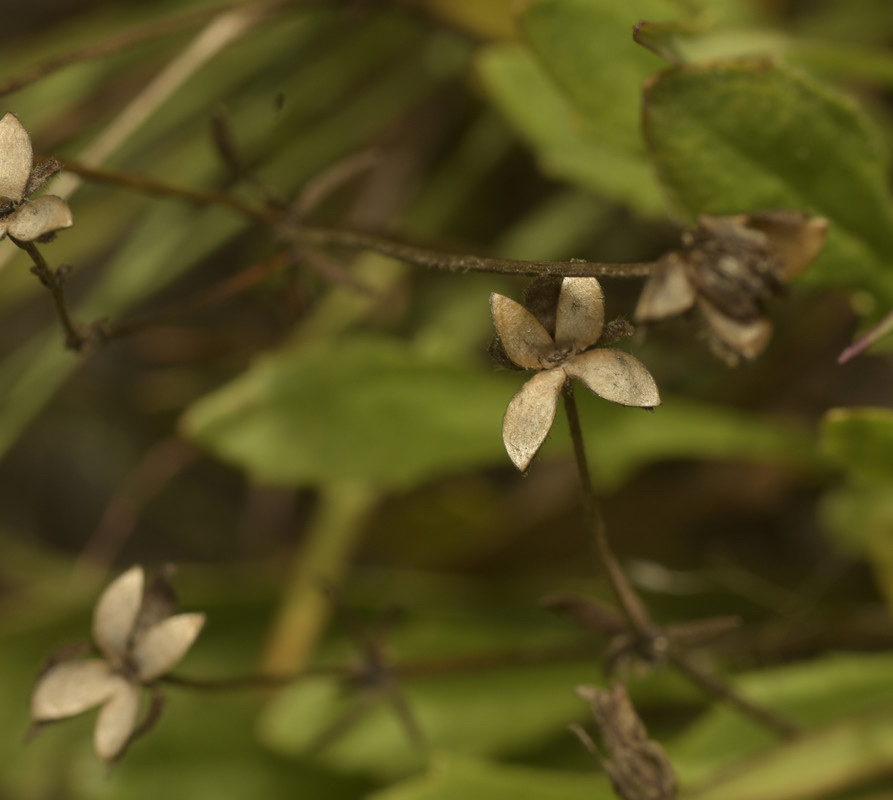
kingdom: Plantae
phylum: Tracheophyta
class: Magnoliopsida
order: Asterales
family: Goodeniaceae
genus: Goodenia
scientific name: Goodenia paradoxa
